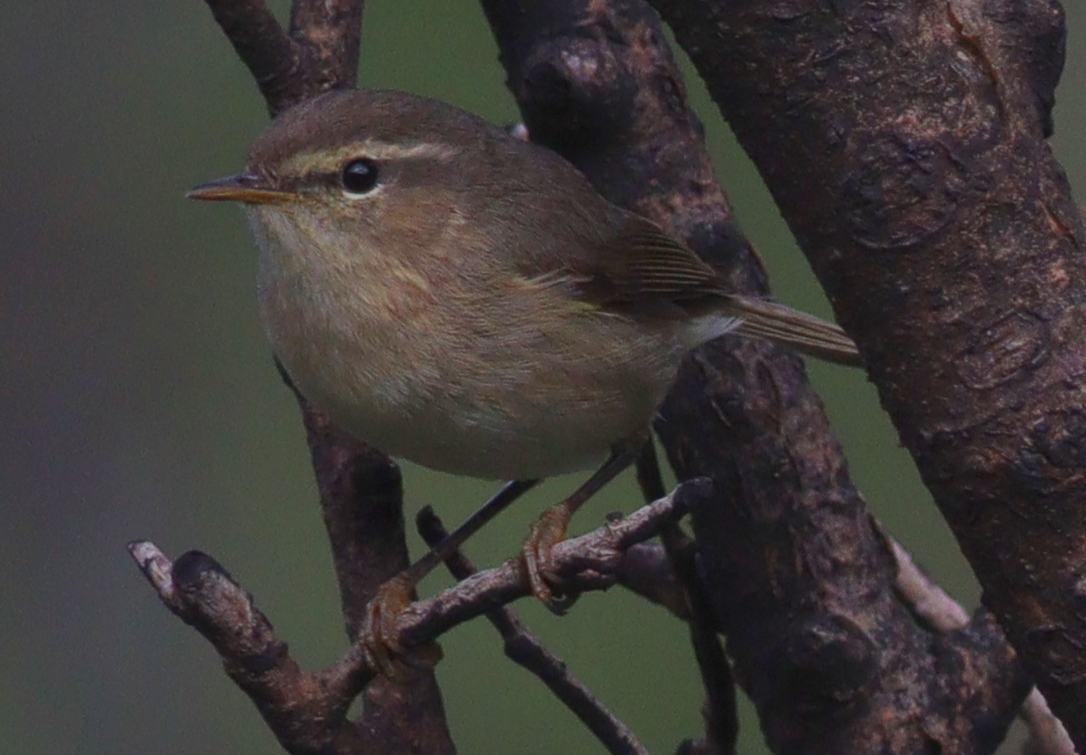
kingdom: Animalia
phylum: Chordata
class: Aves
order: Passeriformes
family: Phylloscopidae
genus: Phylloscopus
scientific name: Phylloscopus canariensis
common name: Canary islands chiffchaff
